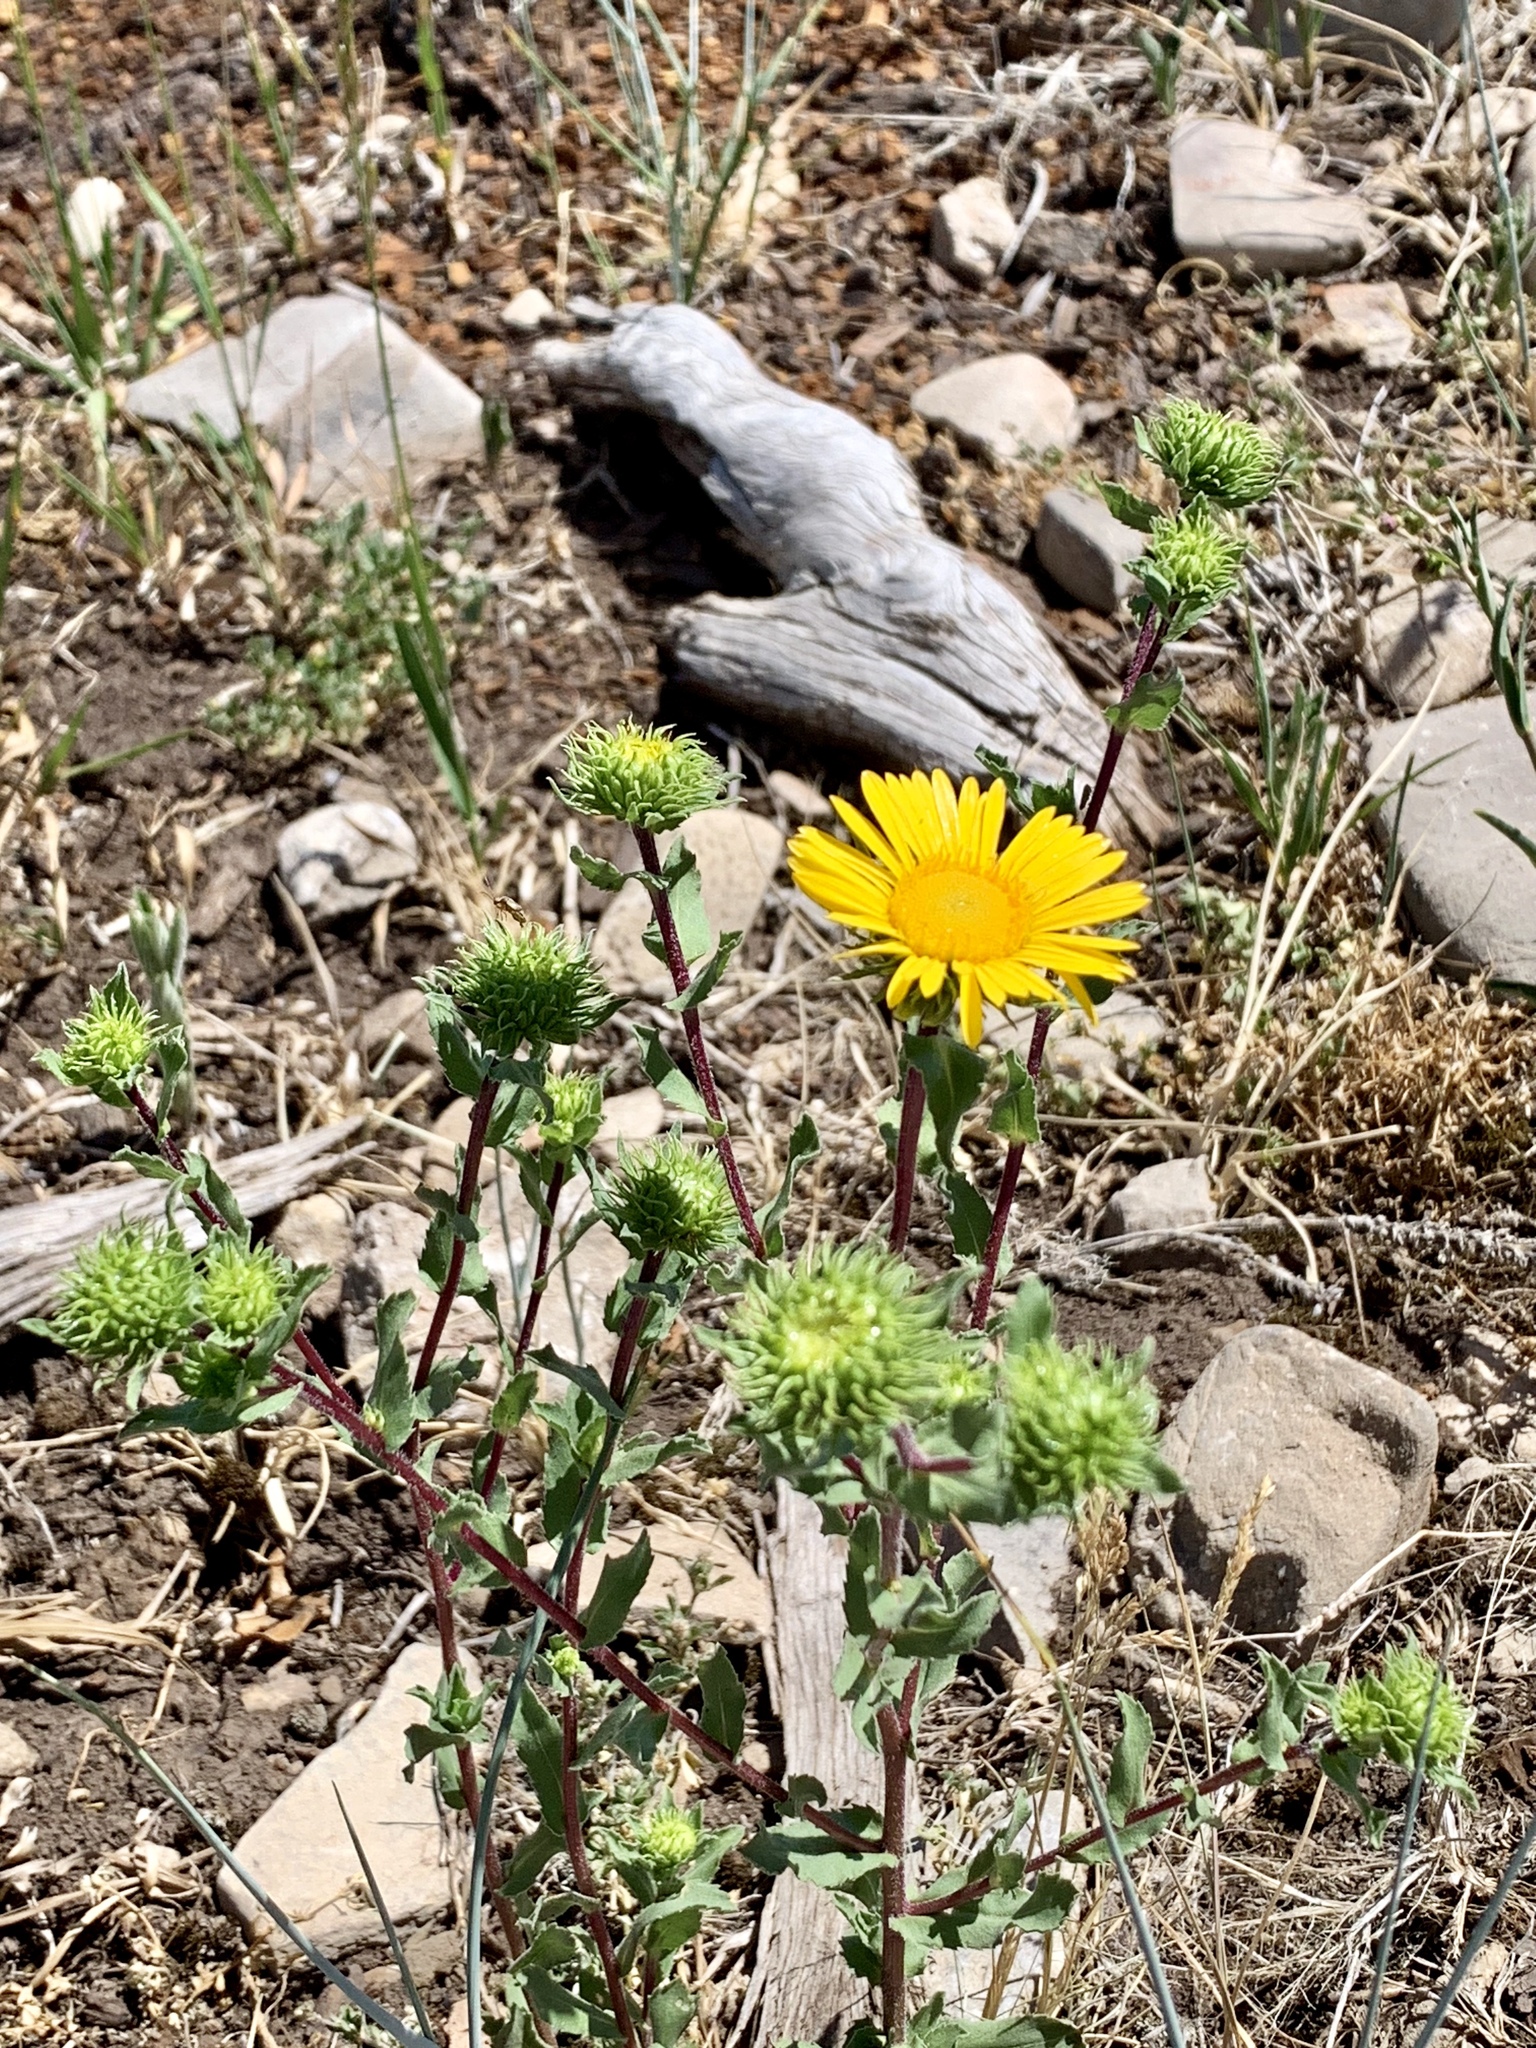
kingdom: Plantae
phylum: Tracheophyta
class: Magnoliopsida
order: Asterales
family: Asteraceae
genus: Grindelia
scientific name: Grindelia scabra
